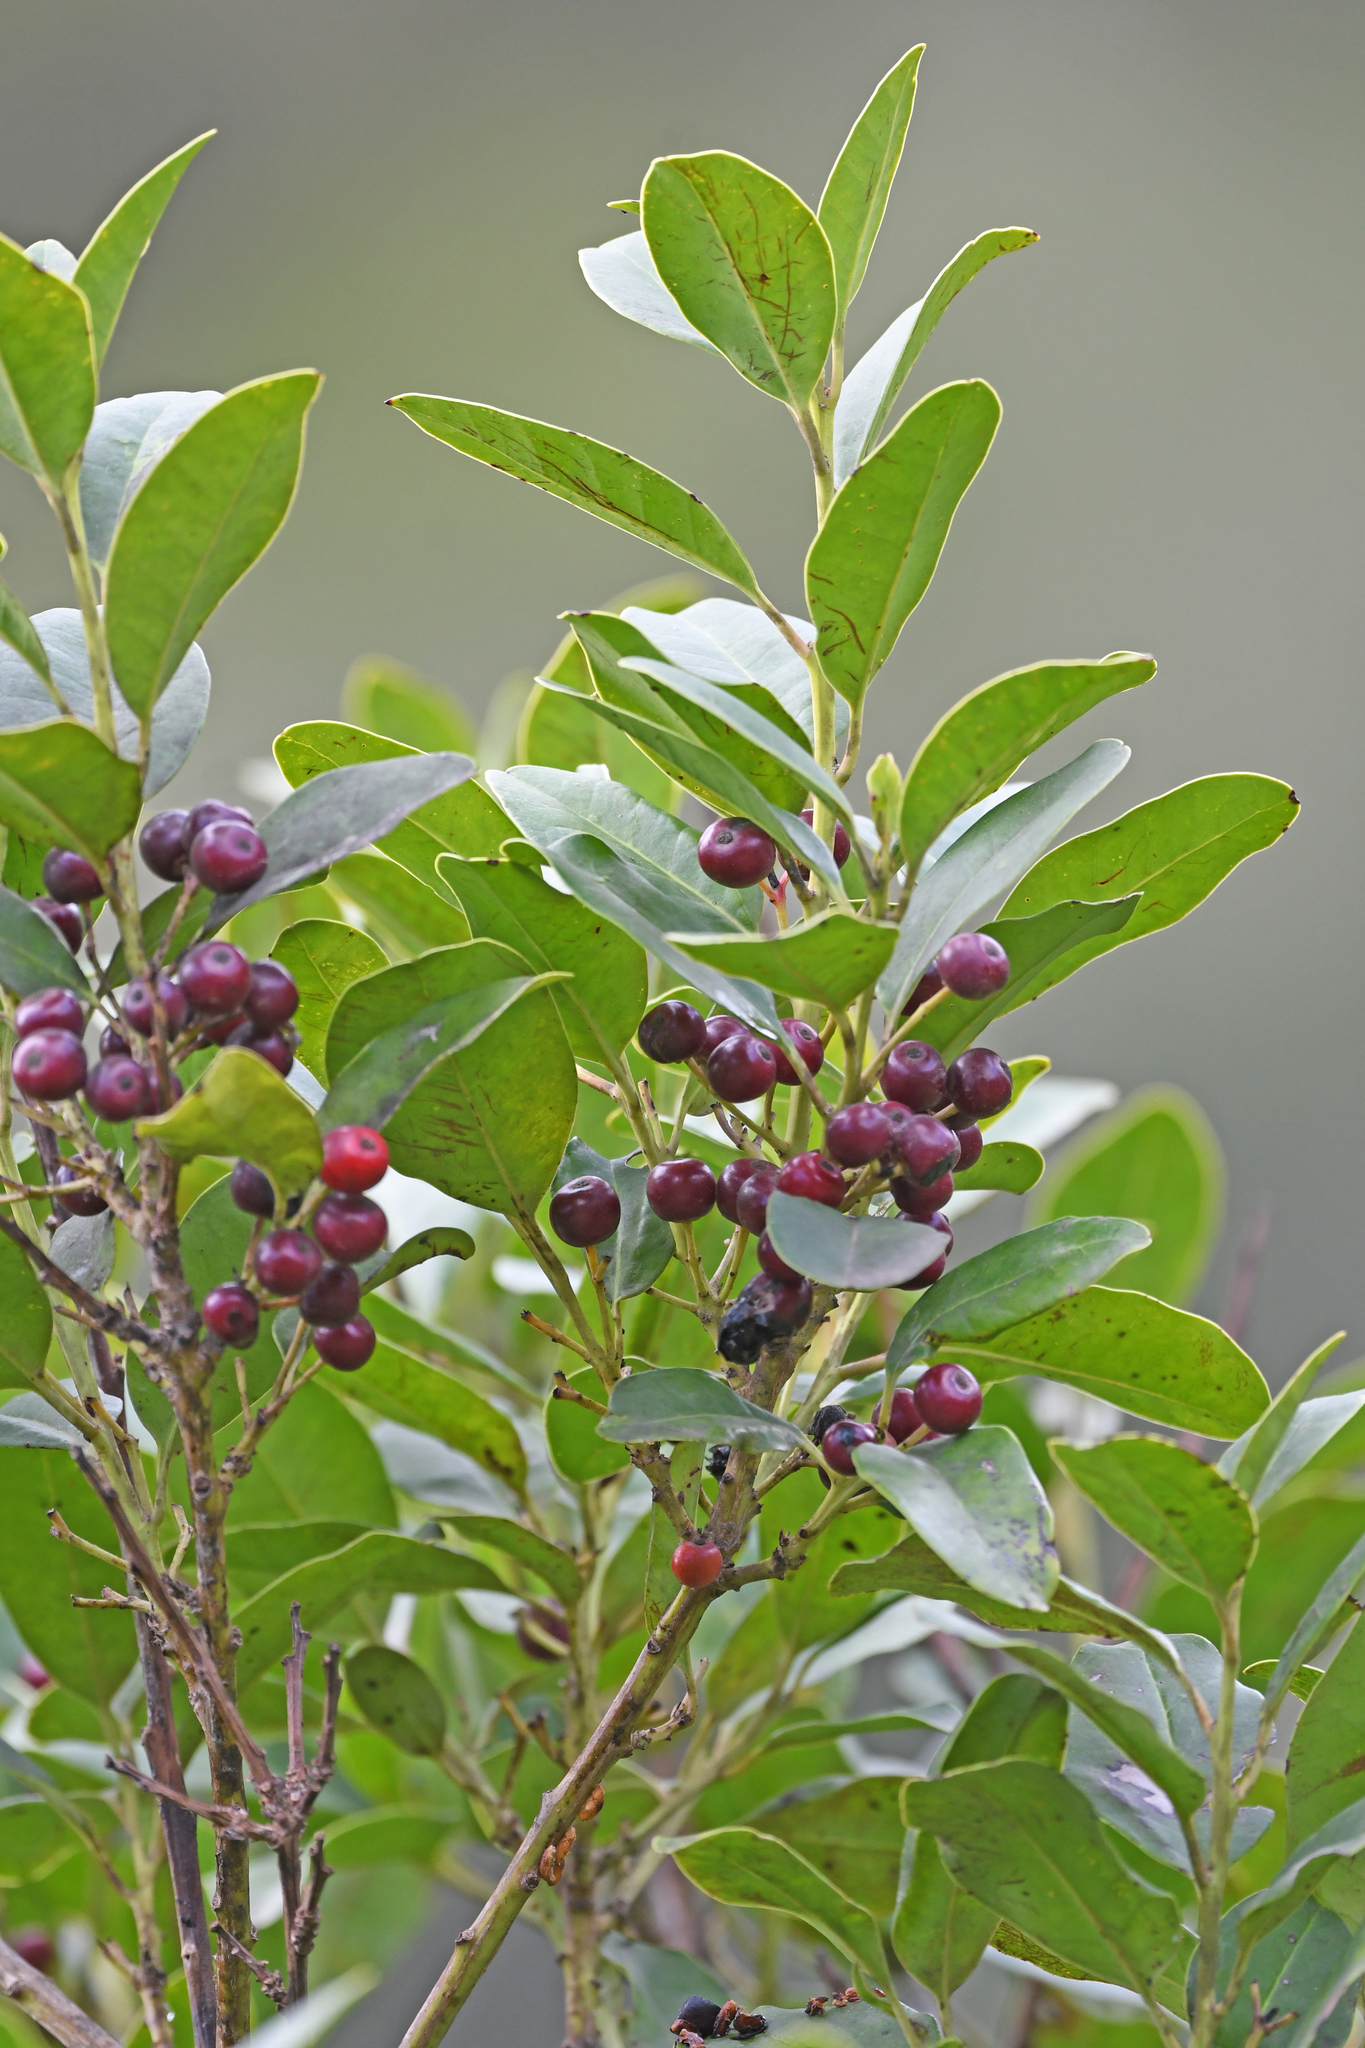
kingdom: Plantae
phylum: Tracheophyta
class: Magnoliopsida
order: Aquifoliales
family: Aquifoliaceae
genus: Ilex
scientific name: Ilex canariensis
